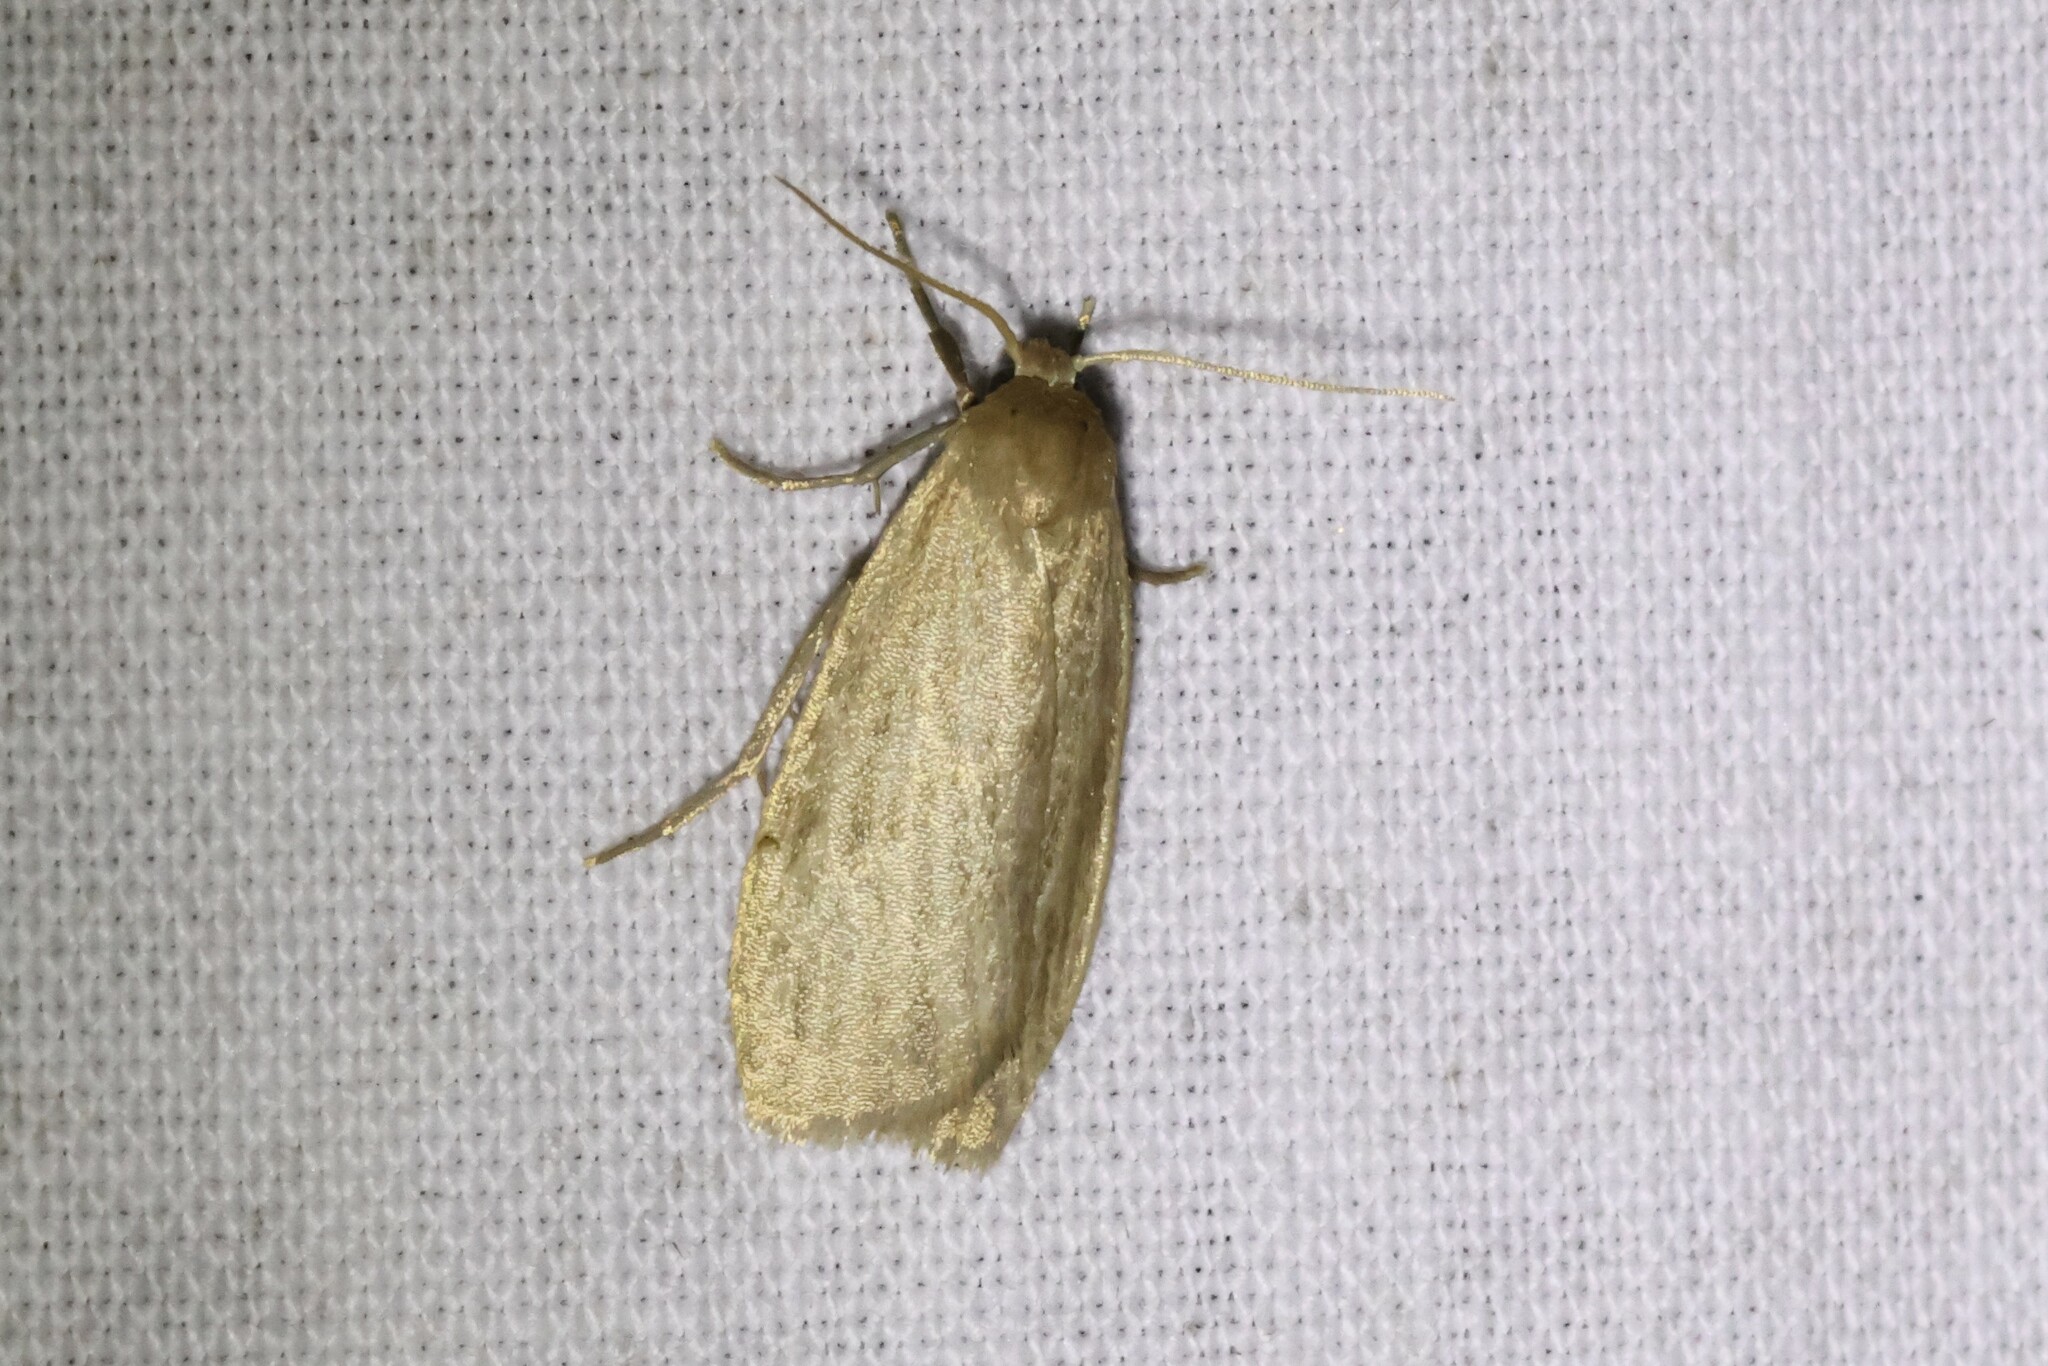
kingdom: Animalia
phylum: Arthropoda
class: Insecta
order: Lepidoptera
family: Erebidae
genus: Crambidia
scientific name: Crambidia pallida
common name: Pale lichen moth
